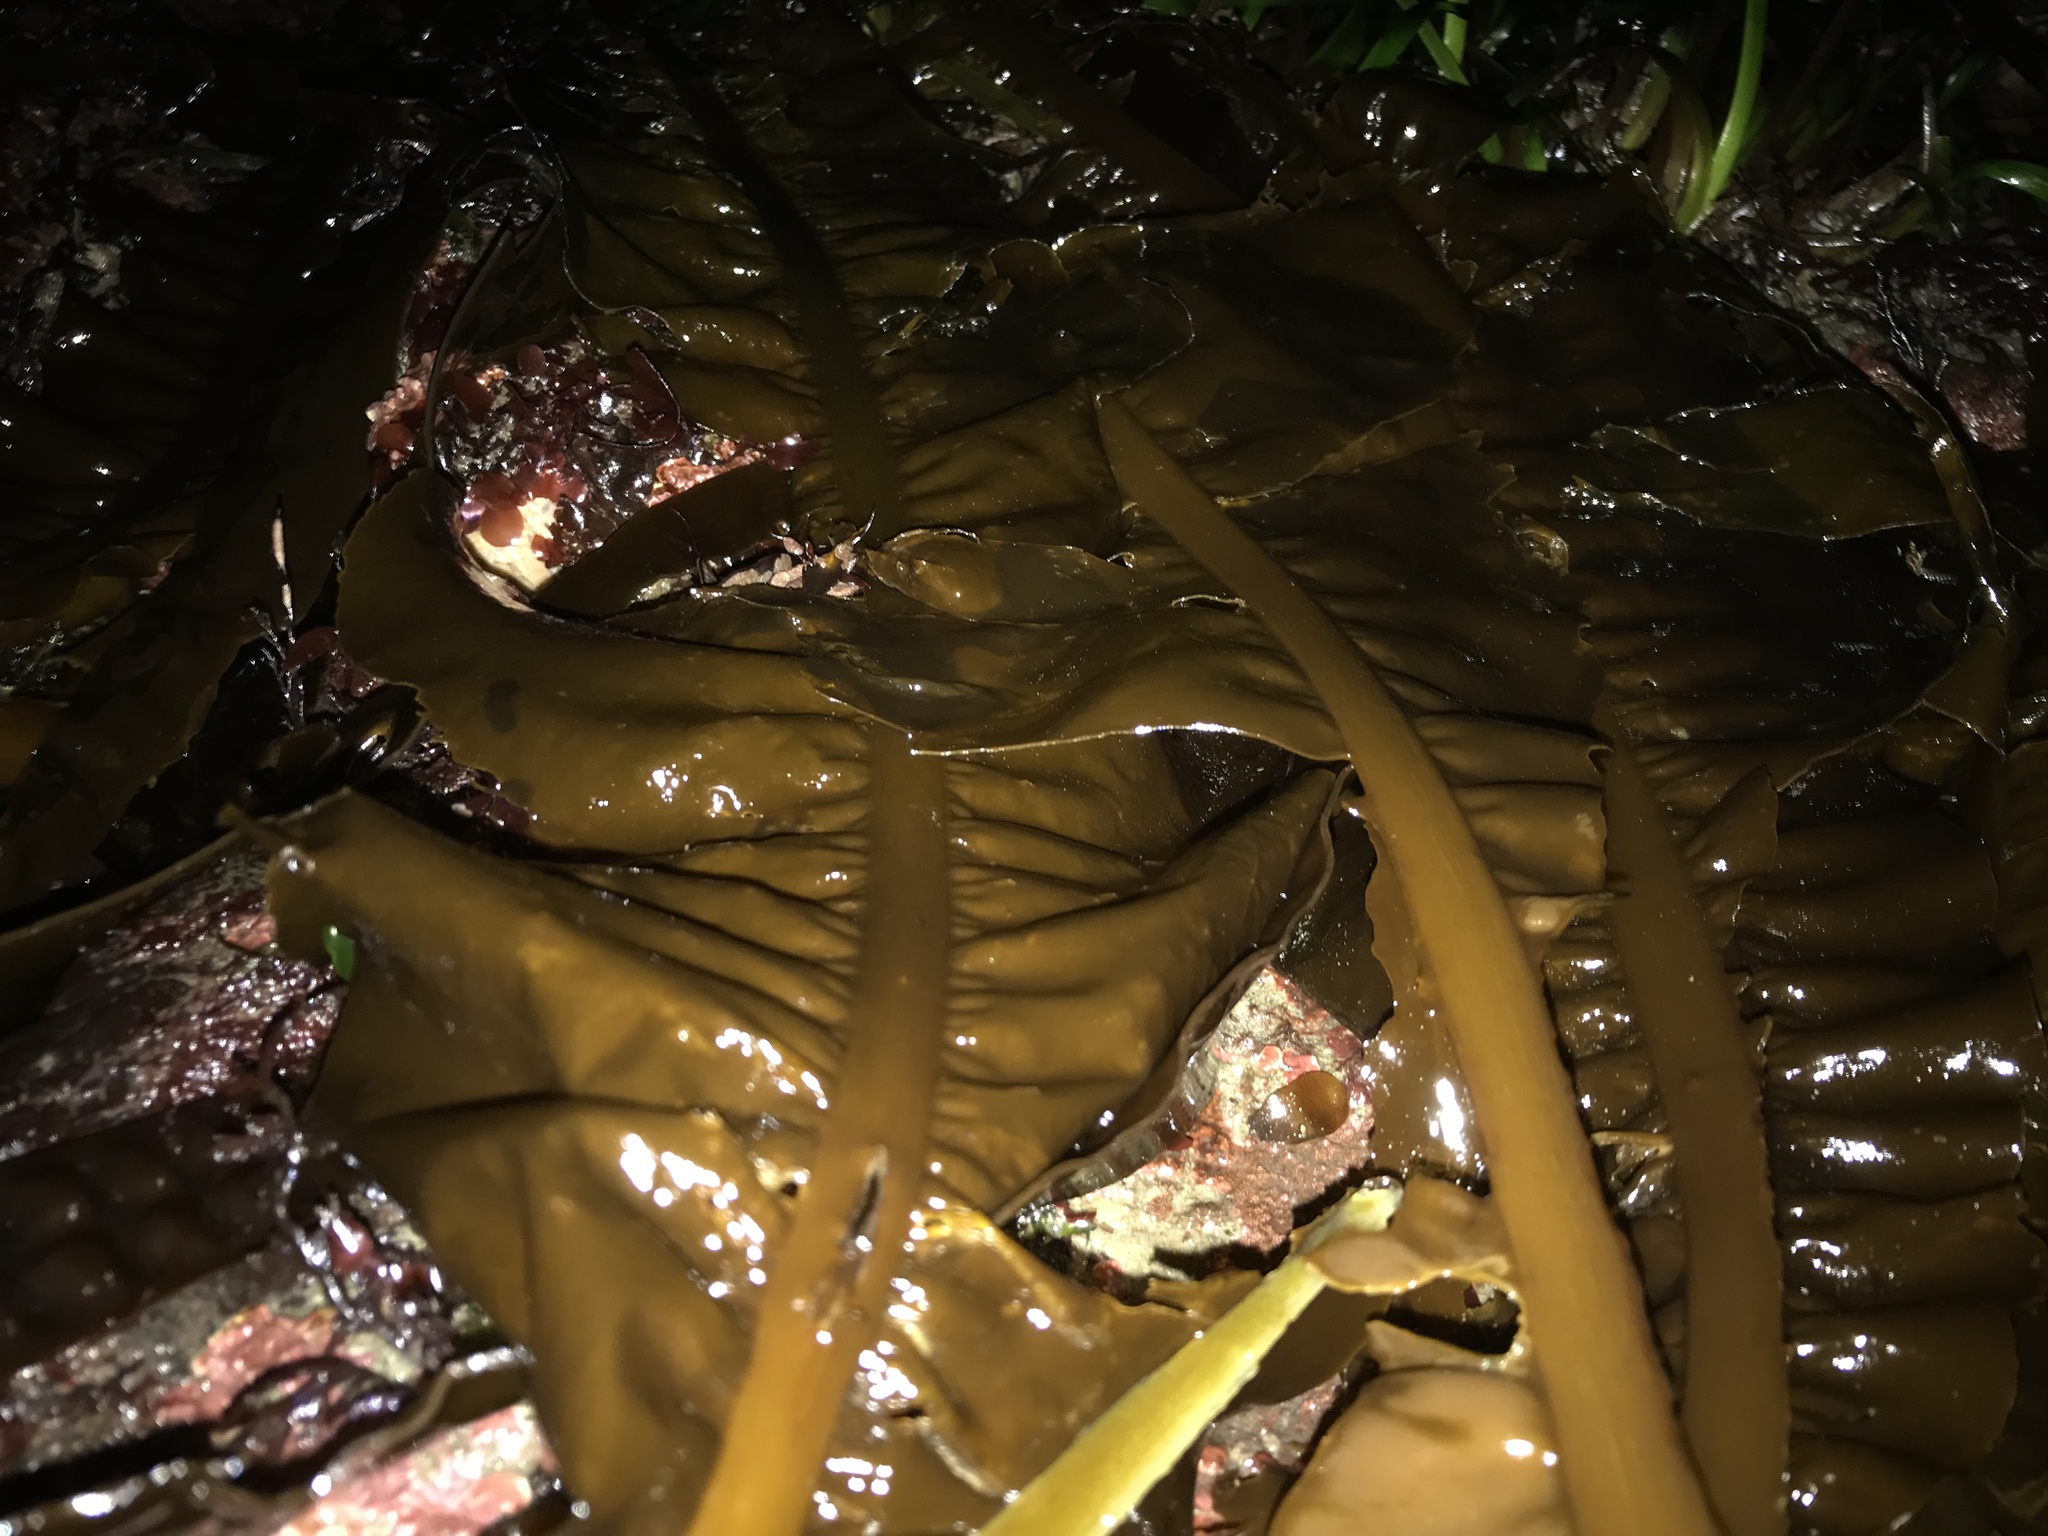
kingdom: Chromista
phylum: Ochrophyta
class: Phaeophyceae
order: Laminariales
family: Alariaceae
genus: Alaria
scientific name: Alaria marginata
